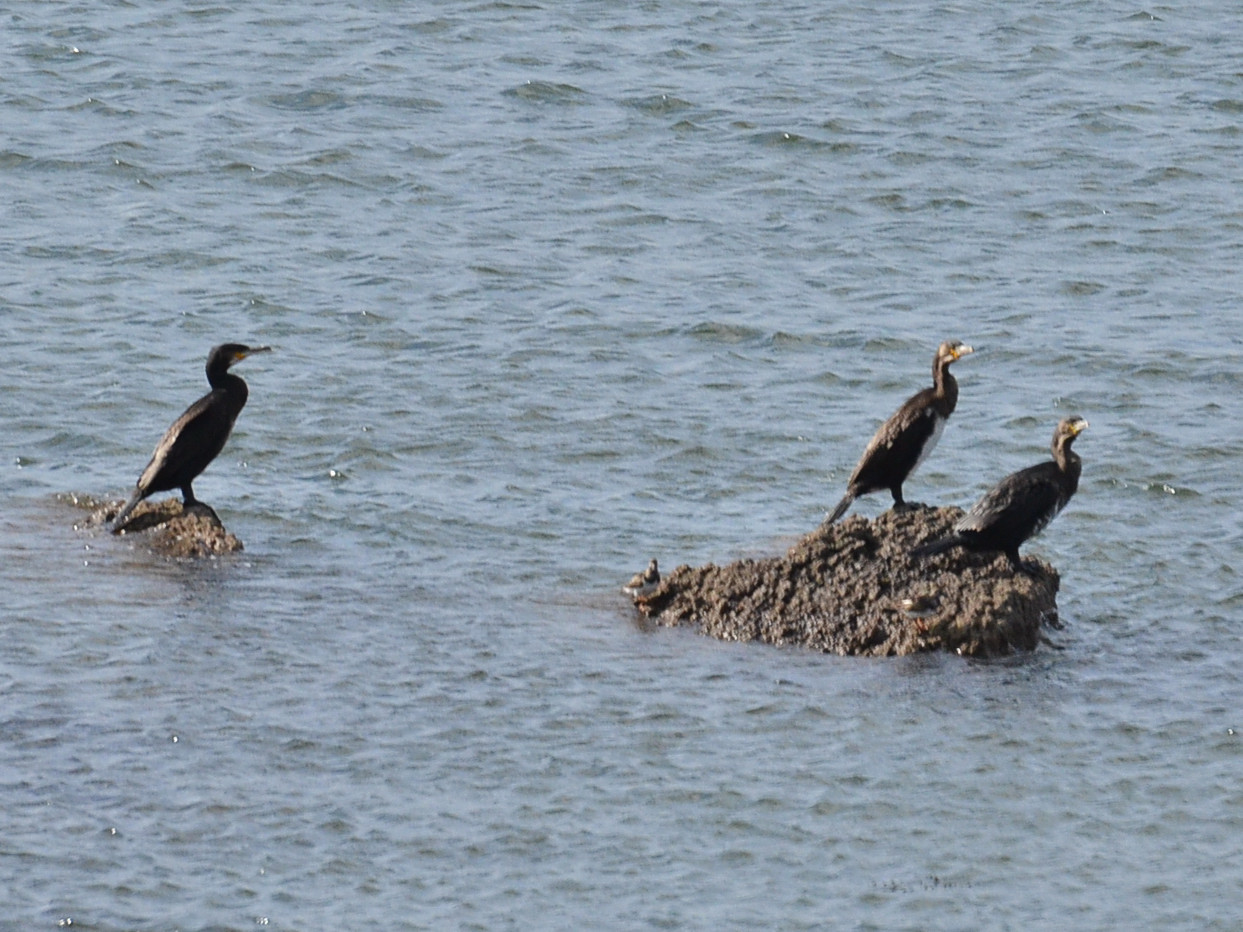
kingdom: Animalia
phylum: Chordata
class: Aves
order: Suliformes
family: Phalacrocoracidae
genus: Phalacrocorax
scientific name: Phalacrocorax carbo
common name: Great cormorant
